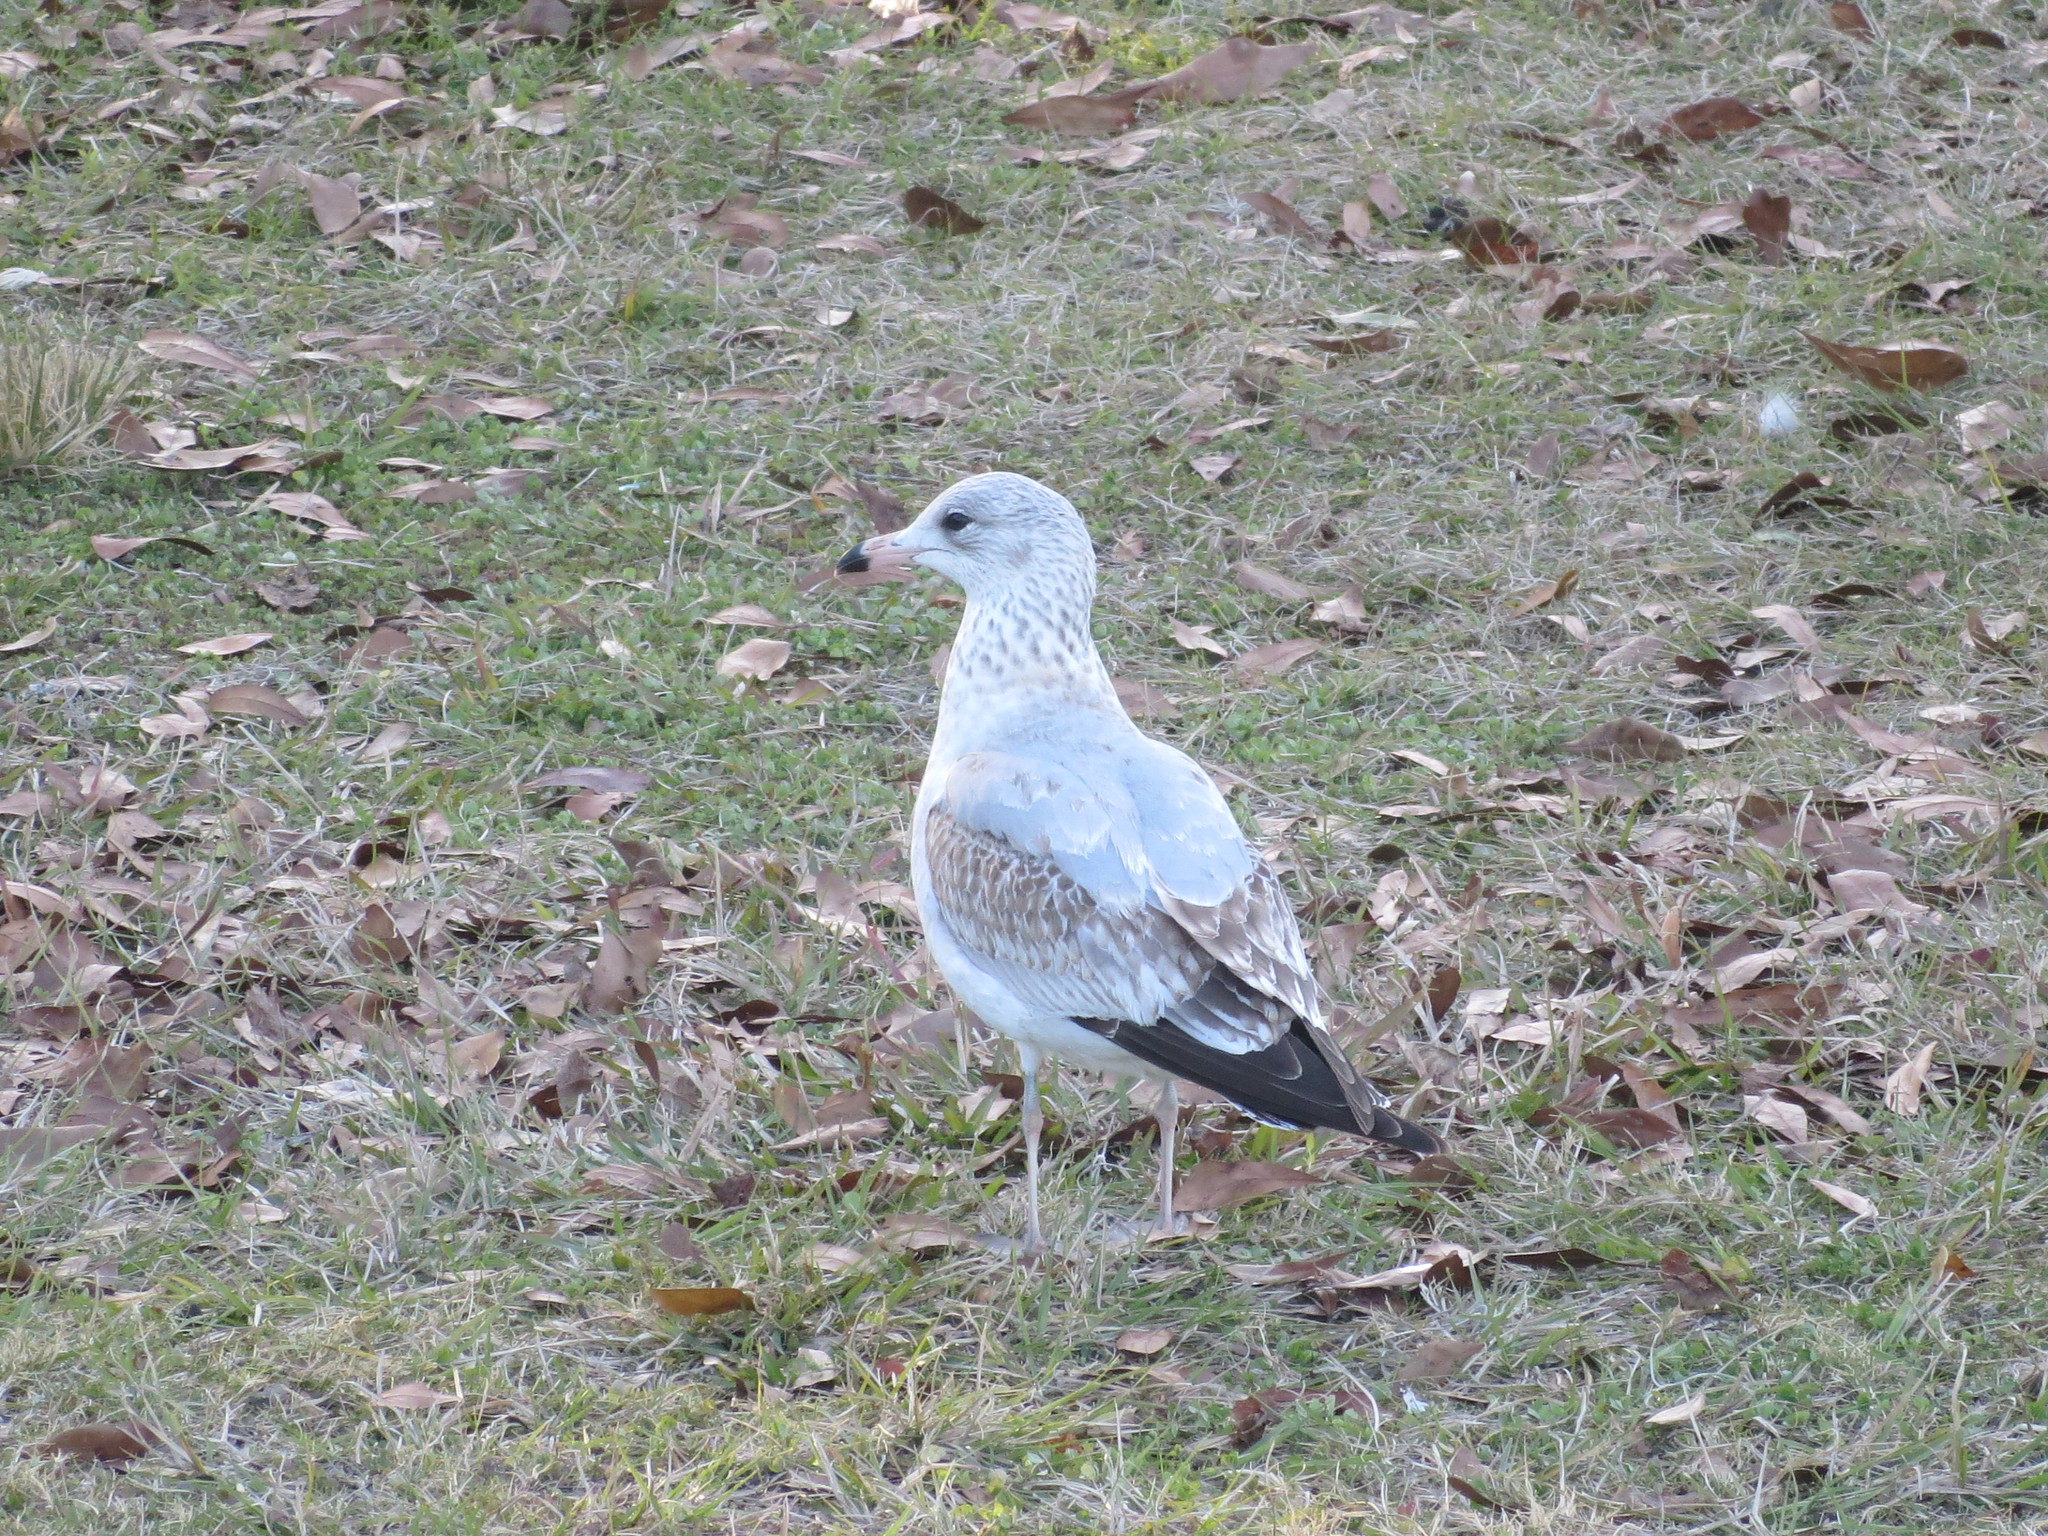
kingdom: Animalia
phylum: Chordata
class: Aves
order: Charadriiformes
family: Laridae
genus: Larus
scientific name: Larus delawarensis
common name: Ring-billed gull
